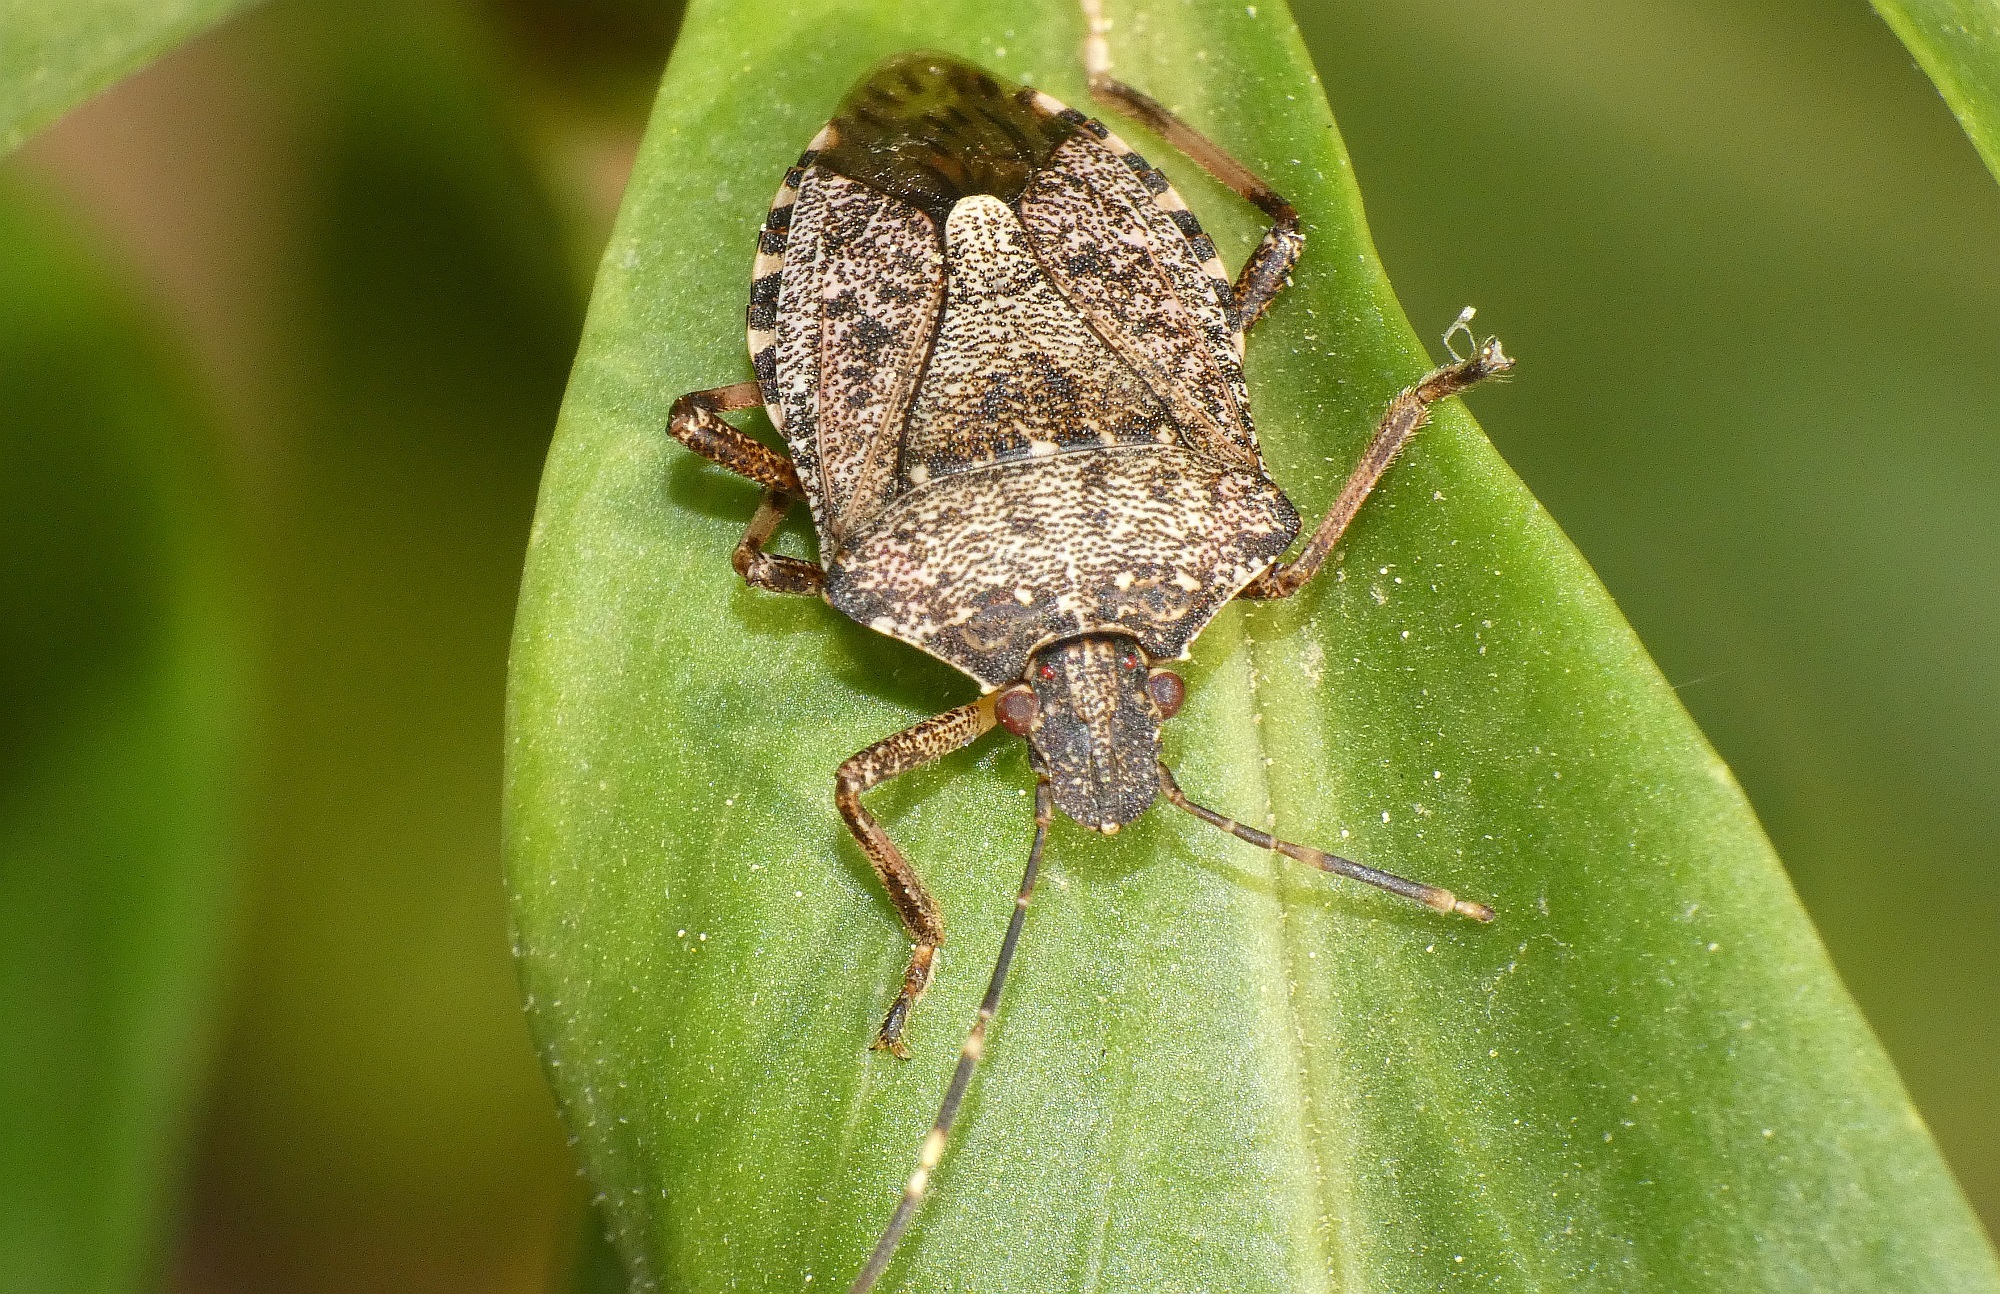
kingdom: Animalia
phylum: Arthropoda
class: Insecta
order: Hemiptera
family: Pentatomidae
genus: Halyomorpha
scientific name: Halyomorpha halys
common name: Brown marmorated stink bug
